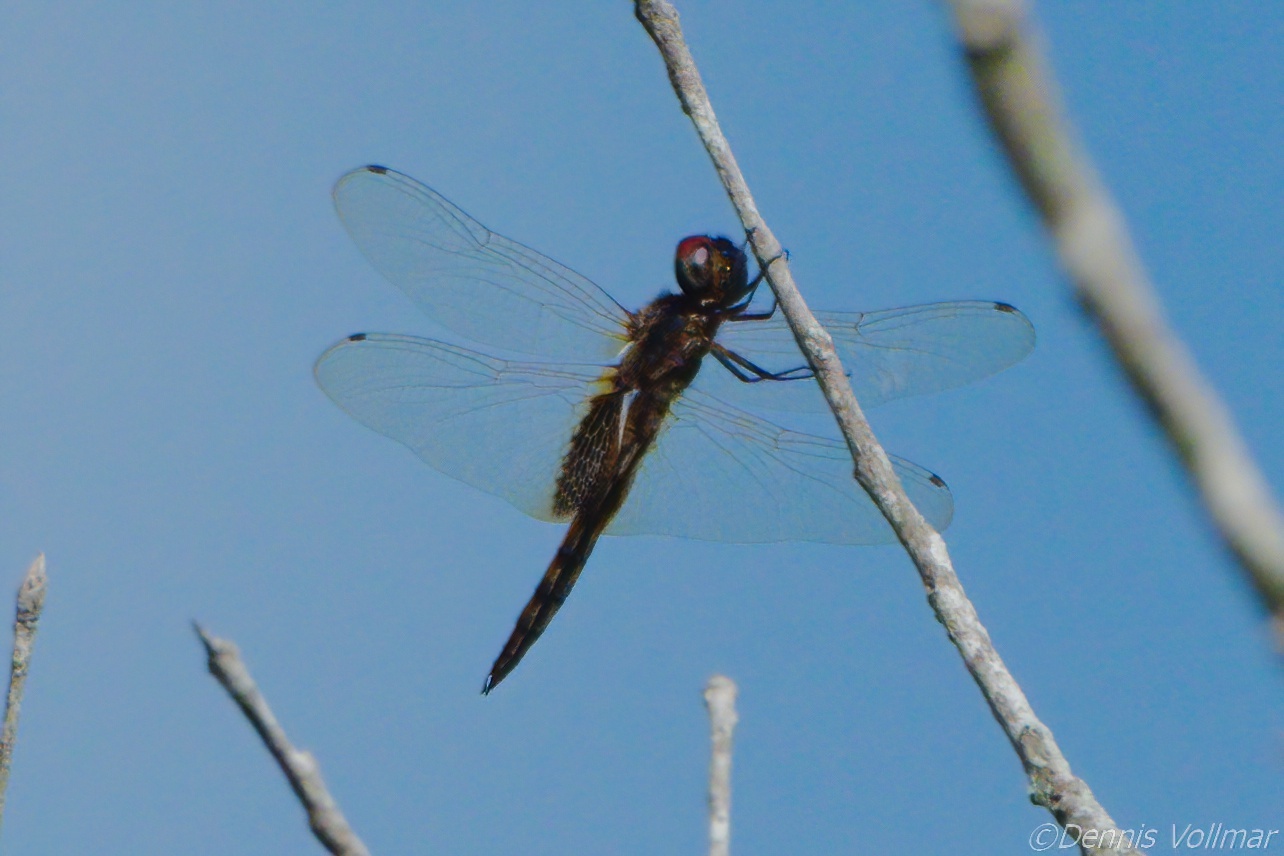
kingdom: Animalia
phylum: Arthropoda
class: Insecta
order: Odonata
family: Libellulidae
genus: Miathyria
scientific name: Miathyria marcella
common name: Hyacinth glider
